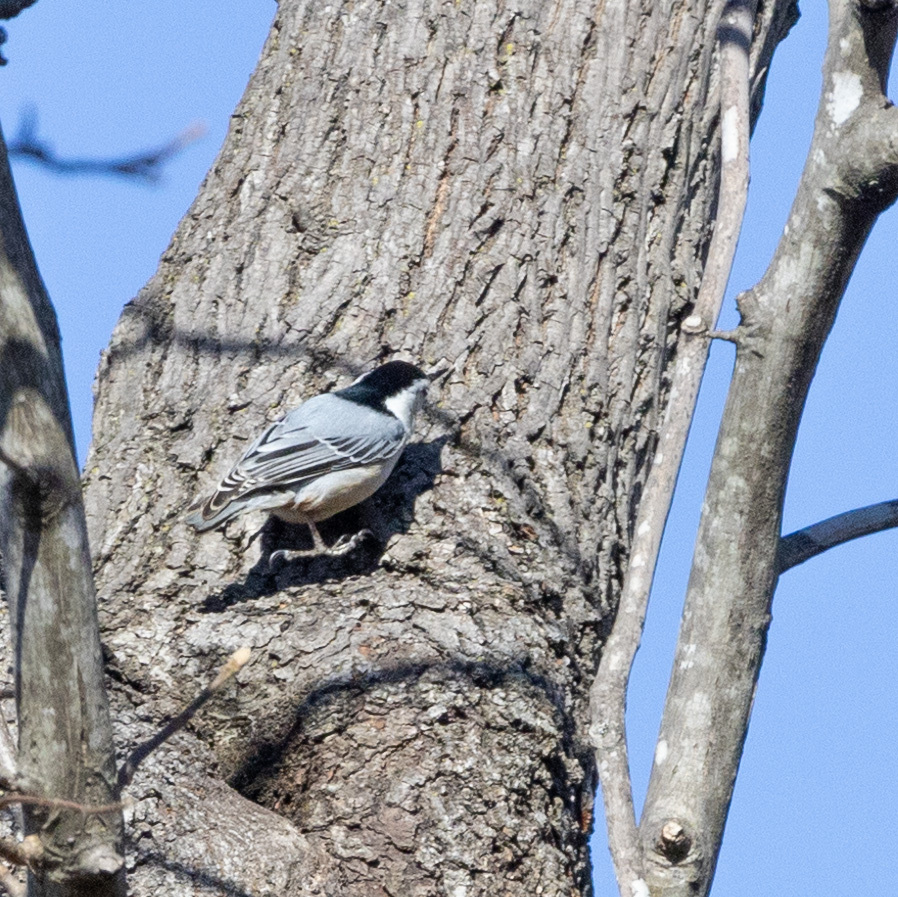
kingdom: Animalia
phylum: Chordata
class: Aves
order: Passeriformes
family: Sittidae
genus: Sitta
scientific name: Sitta carolinensis
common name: White-breasted nuthatch
